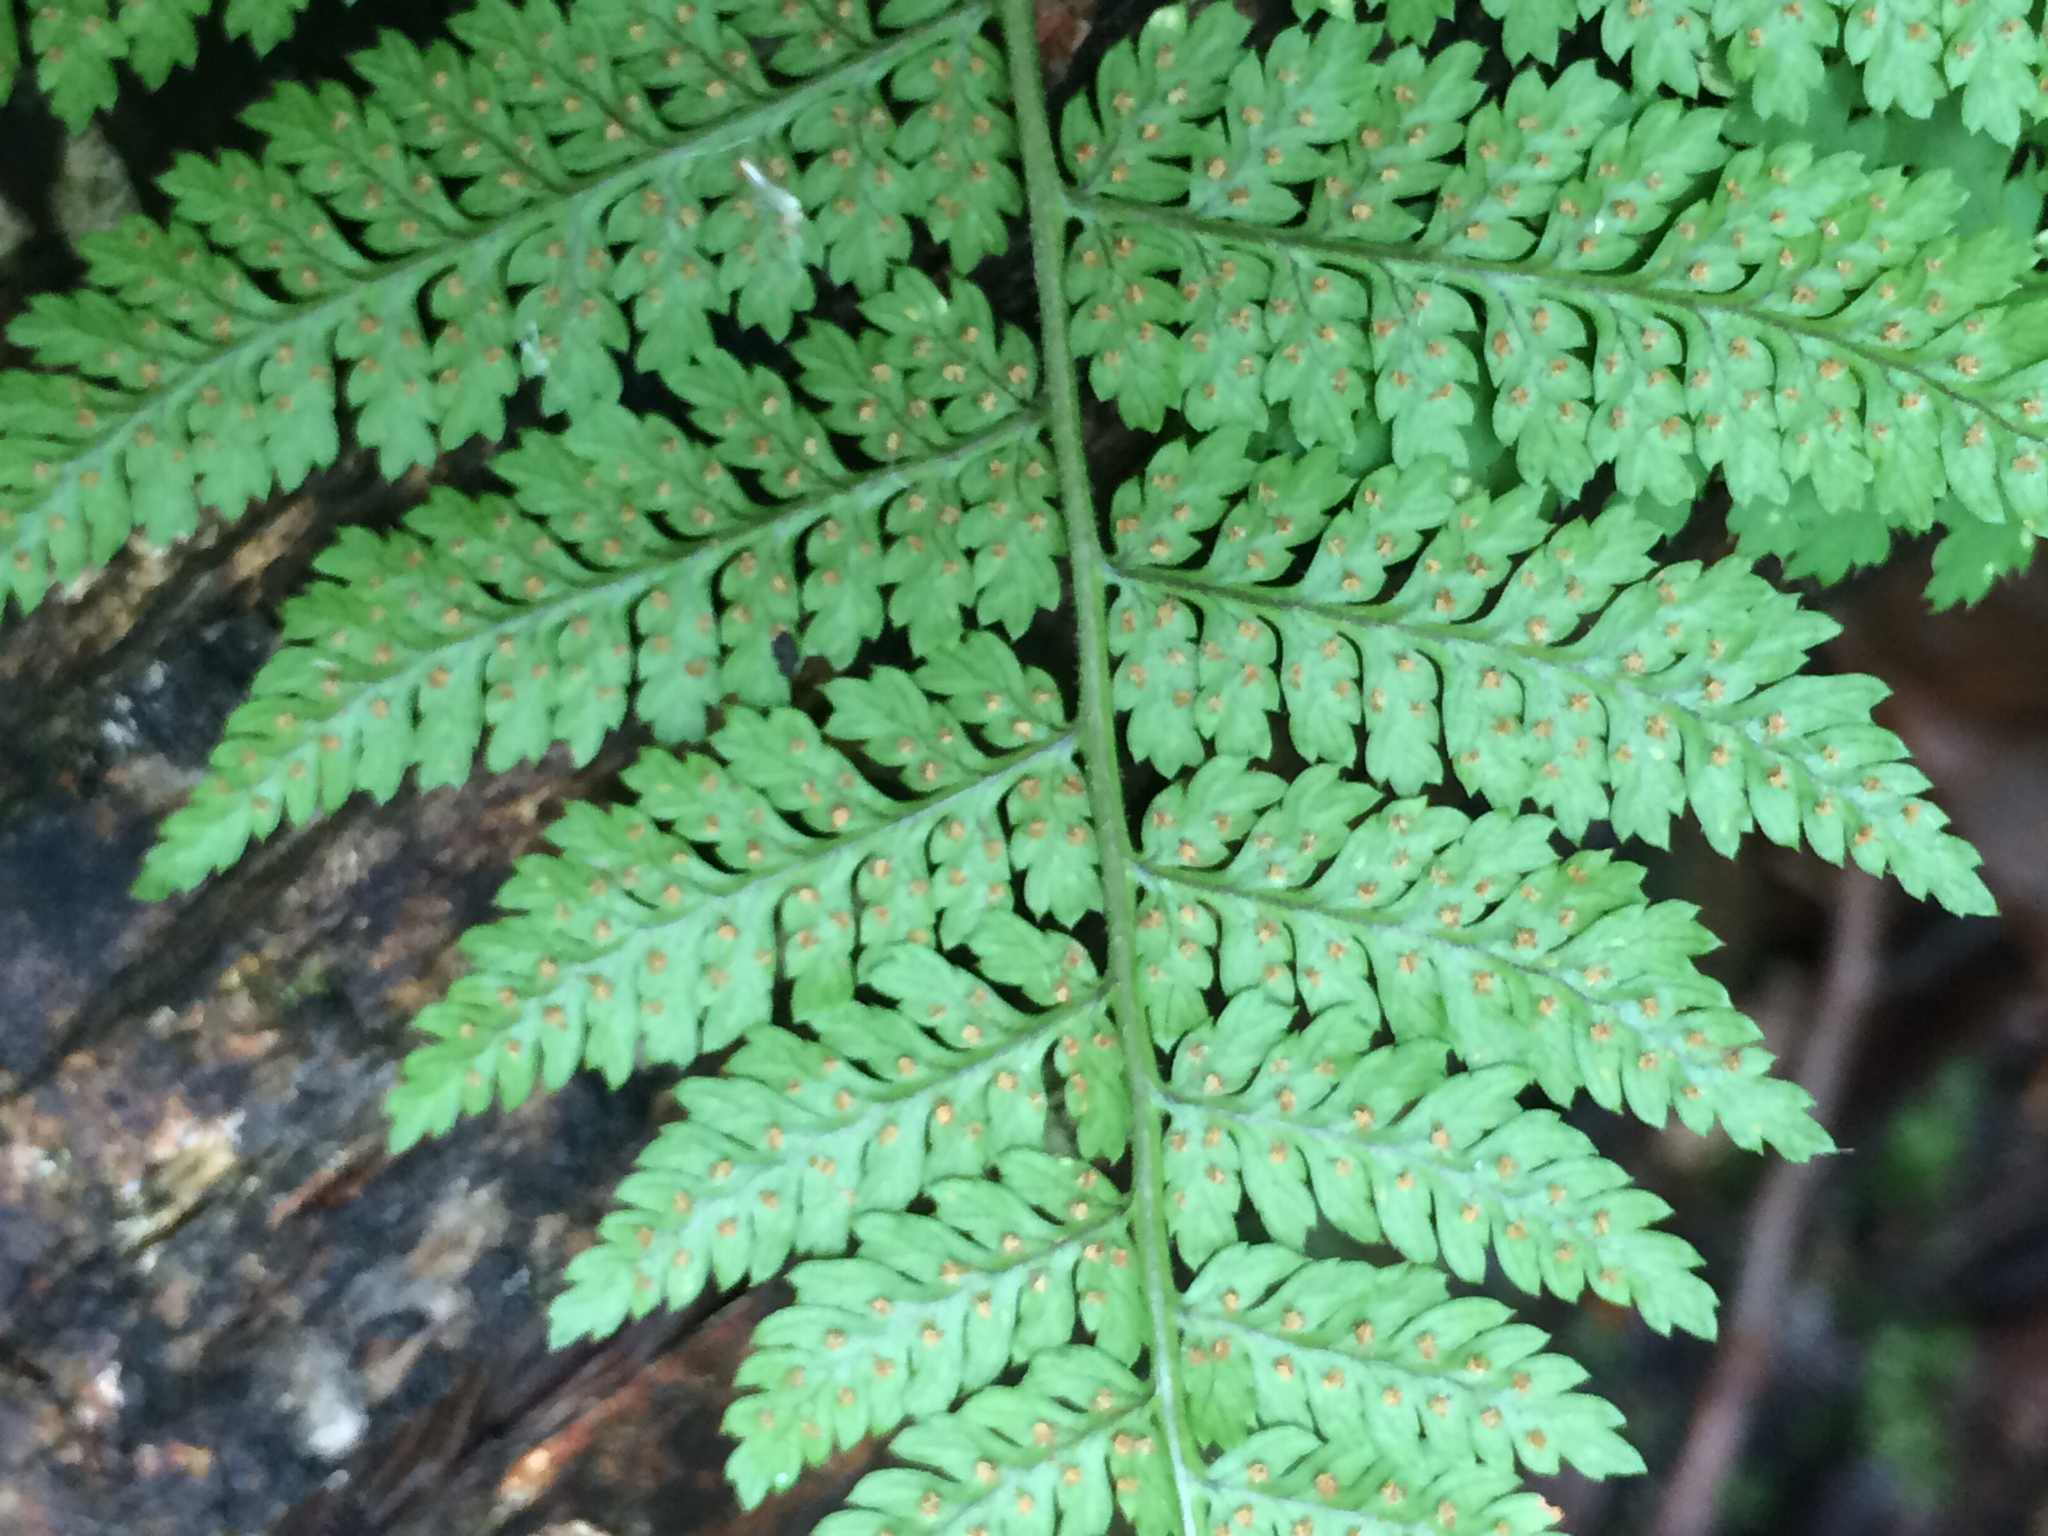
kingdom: Plantae
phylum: Tracheophyta
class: Polypodiopsida
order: Polypodiales
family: Dryopteridaceae
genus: Dryopteris
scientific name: Dryopteris intermedia
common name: Evergreen wood fern
